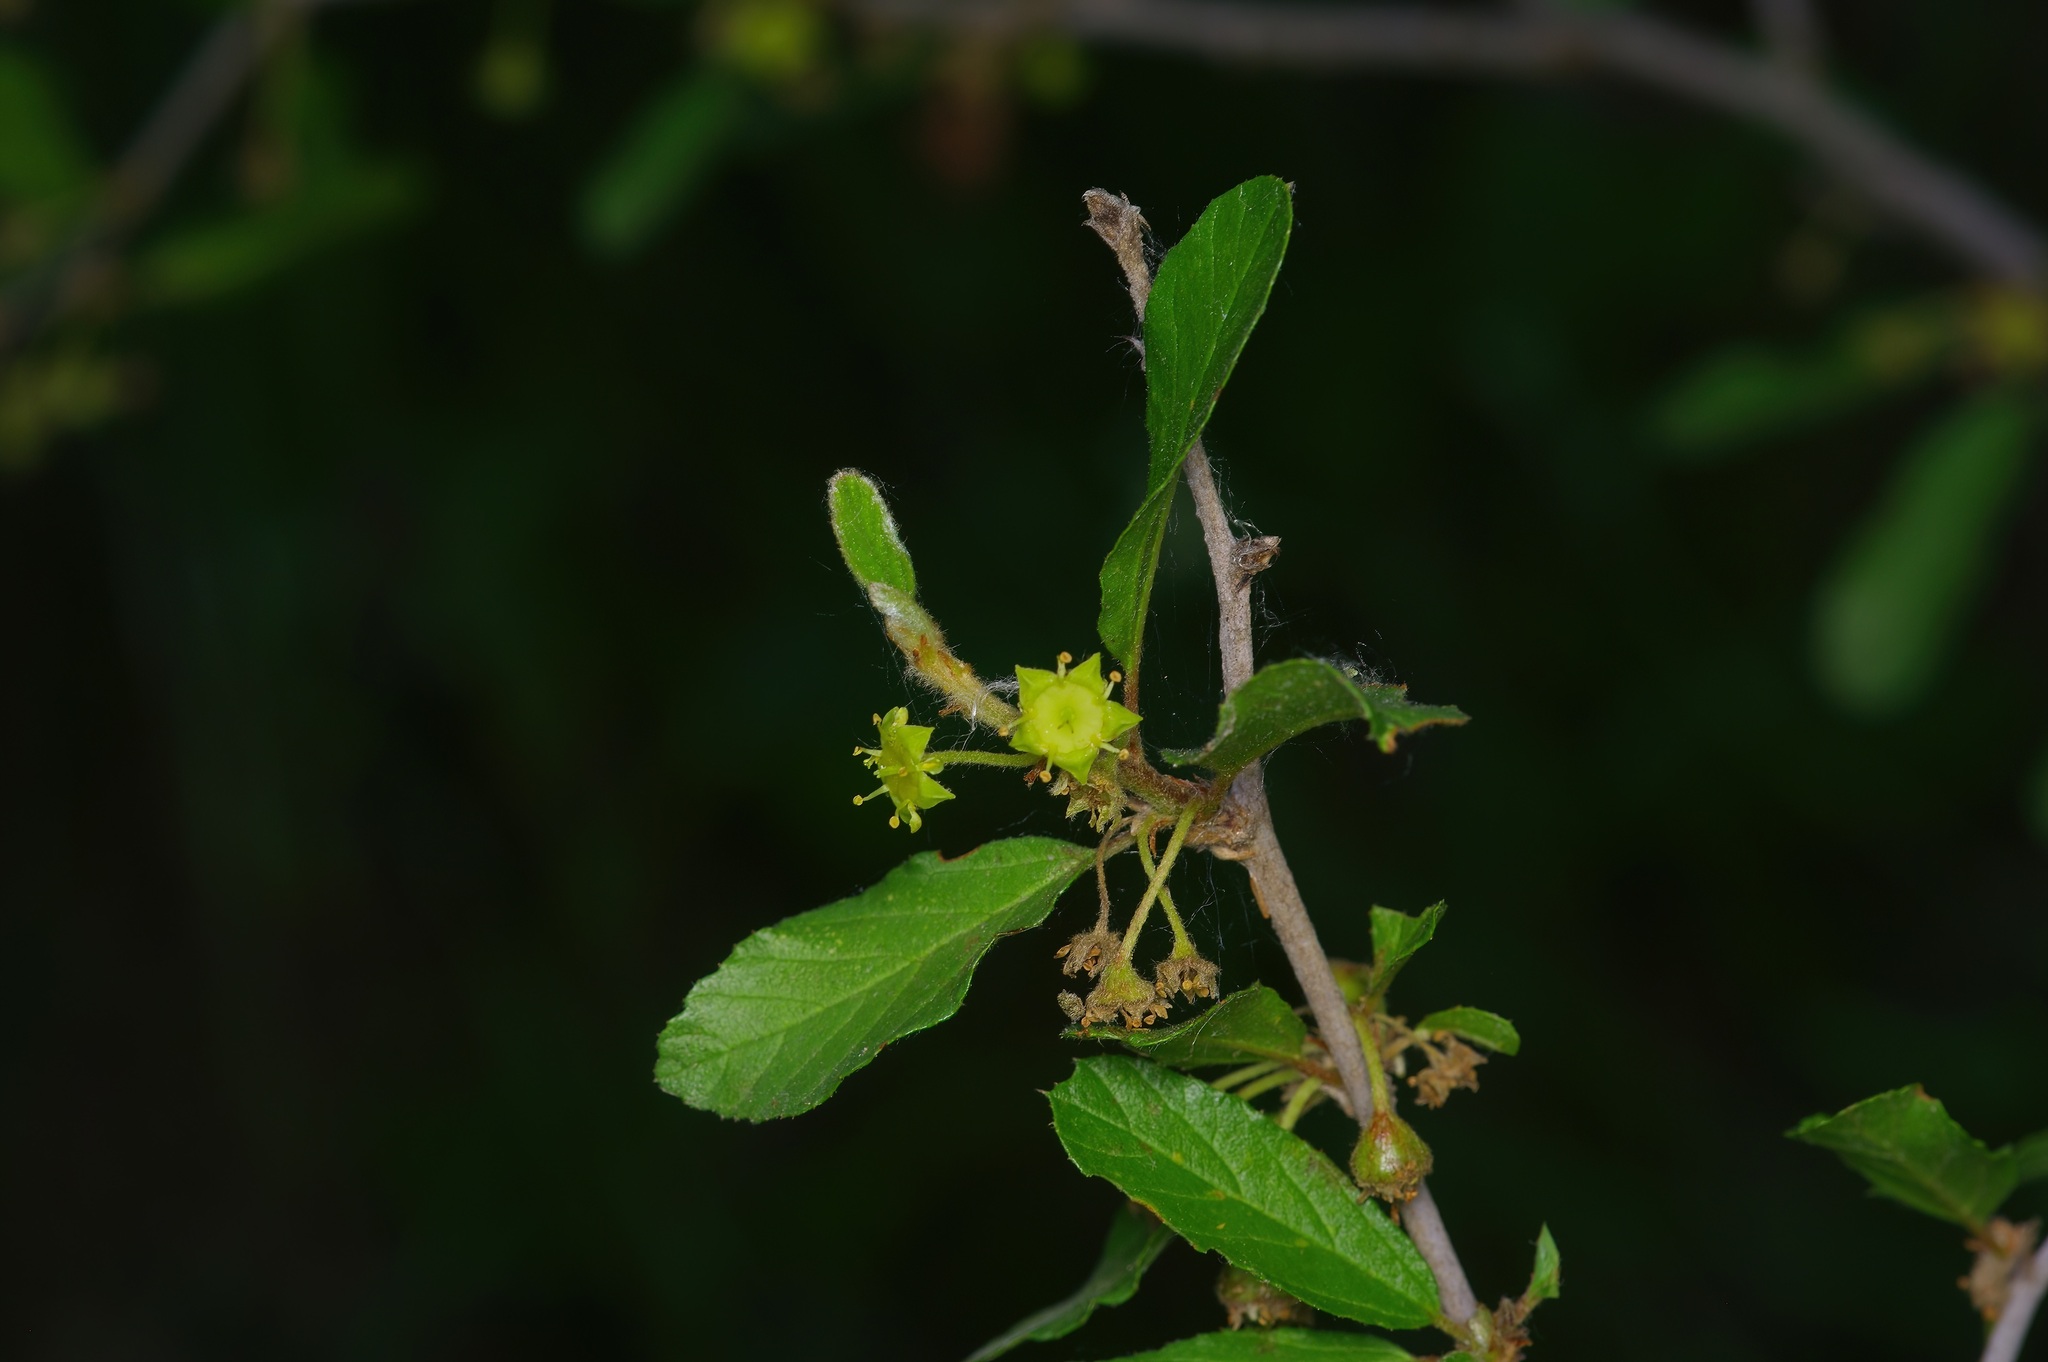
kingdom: Plantae
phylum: Tracheophyta
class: Magnoliopsida
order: Rosales
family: Rhamnaceae
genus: Colubrina
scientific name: Colubrina texensis
